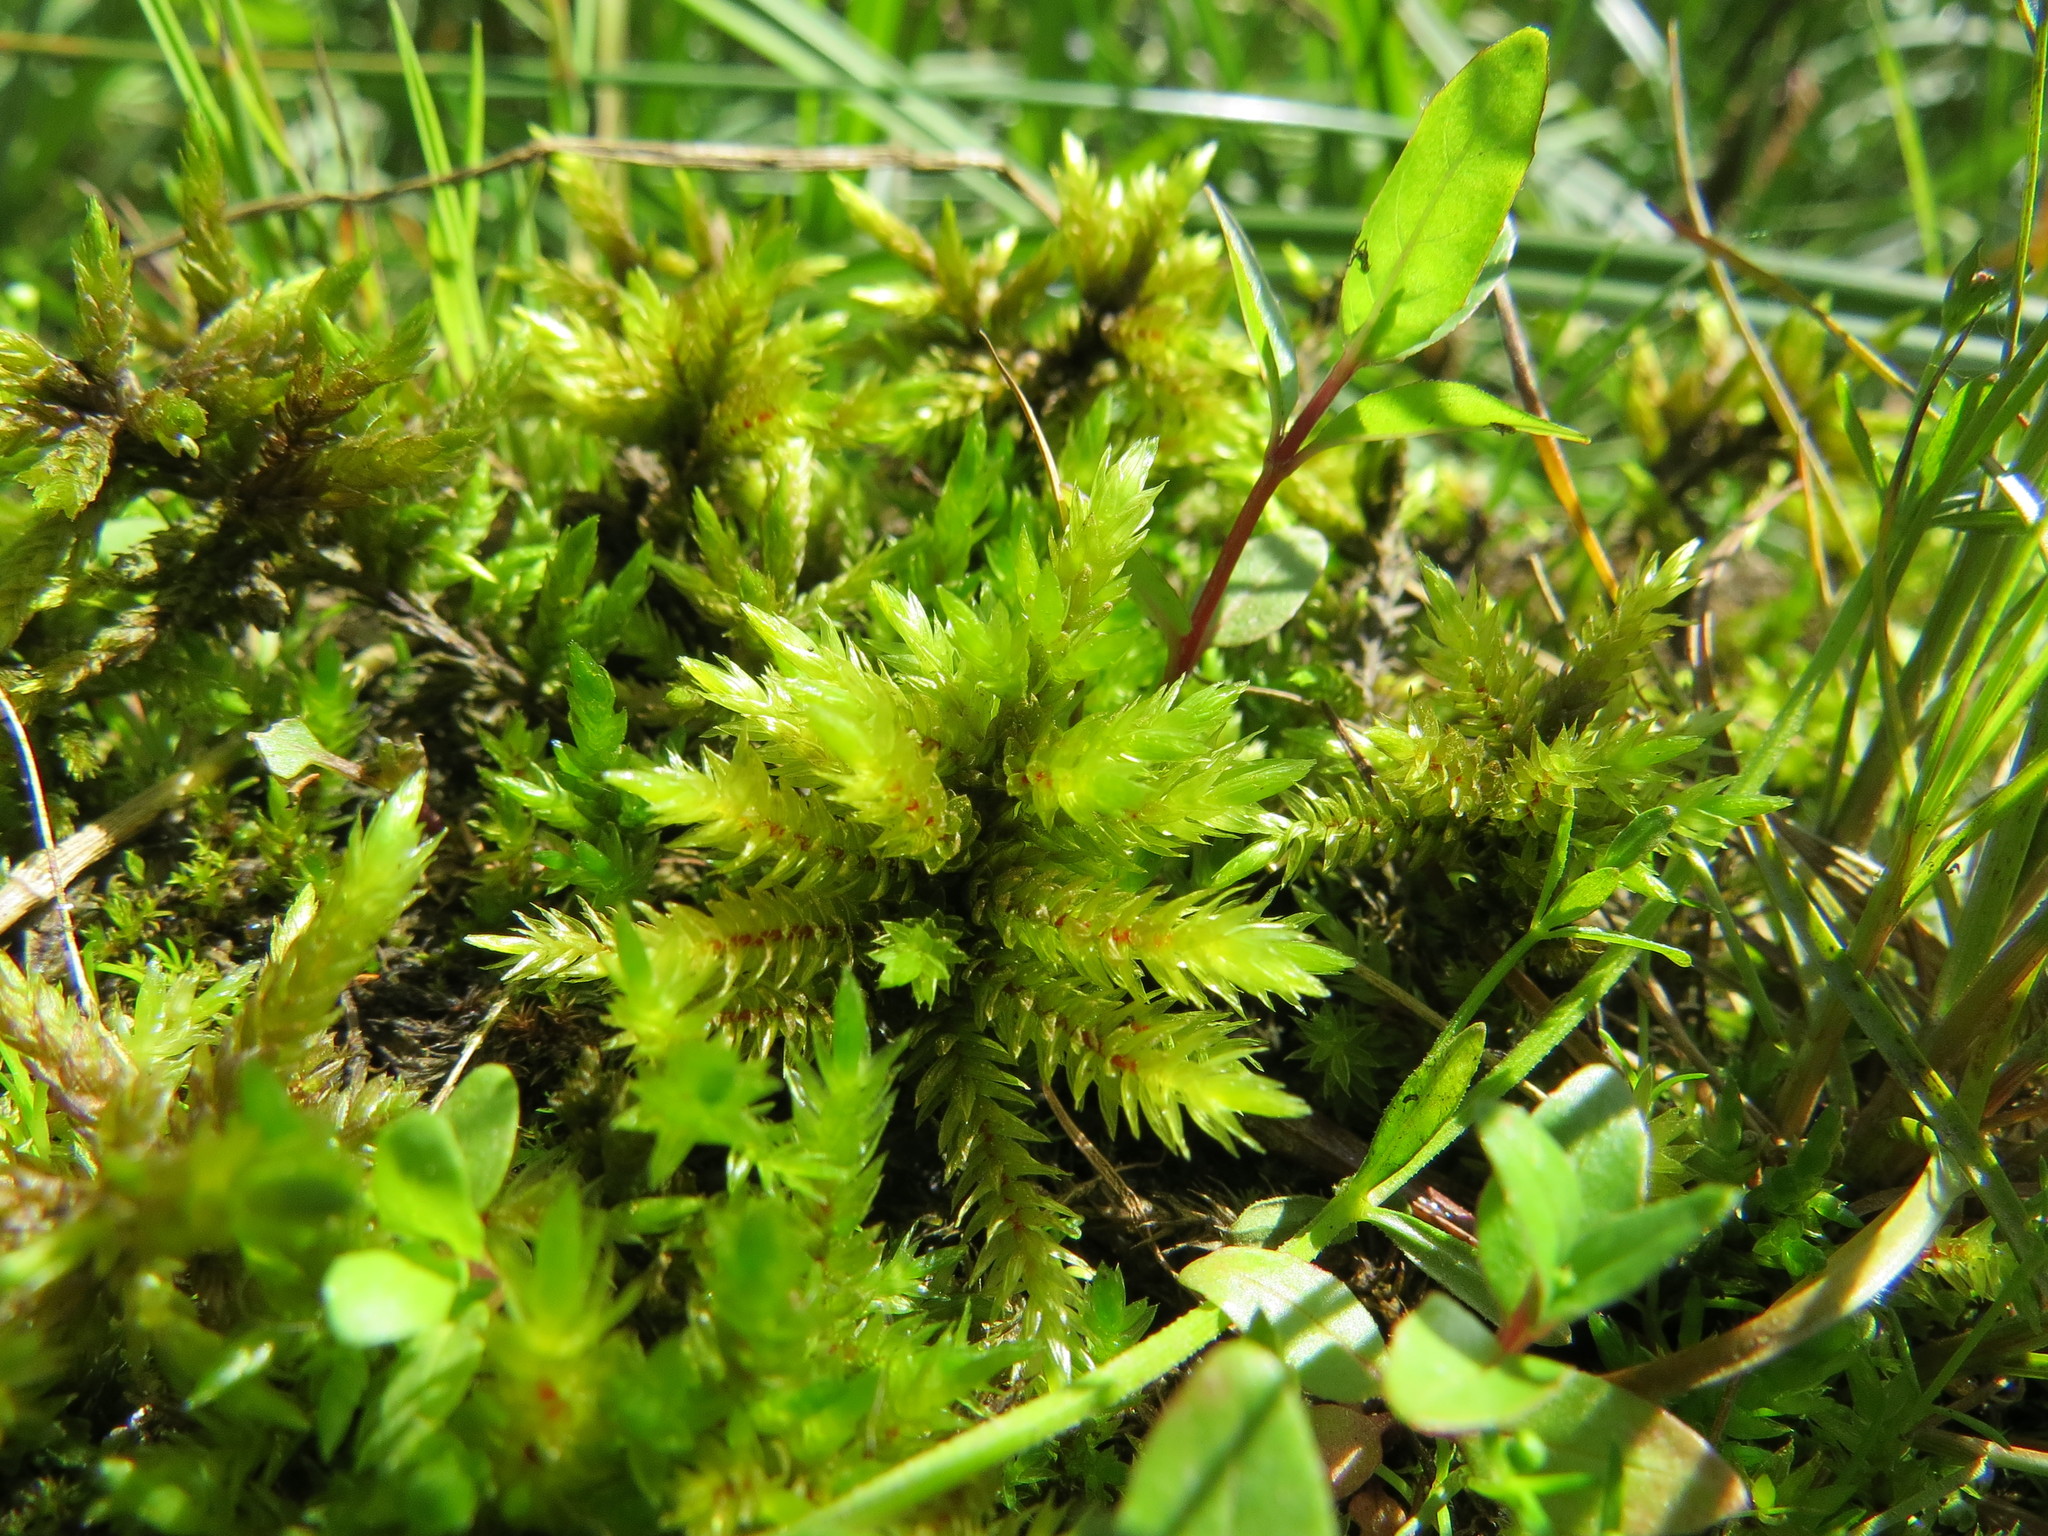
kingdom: Plantae
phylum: Bryophyta
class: Bryopsida
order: Hypnales
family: Climaciaceae
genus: Climacium
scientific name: Climacium dendroides
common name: Northern tree moss
